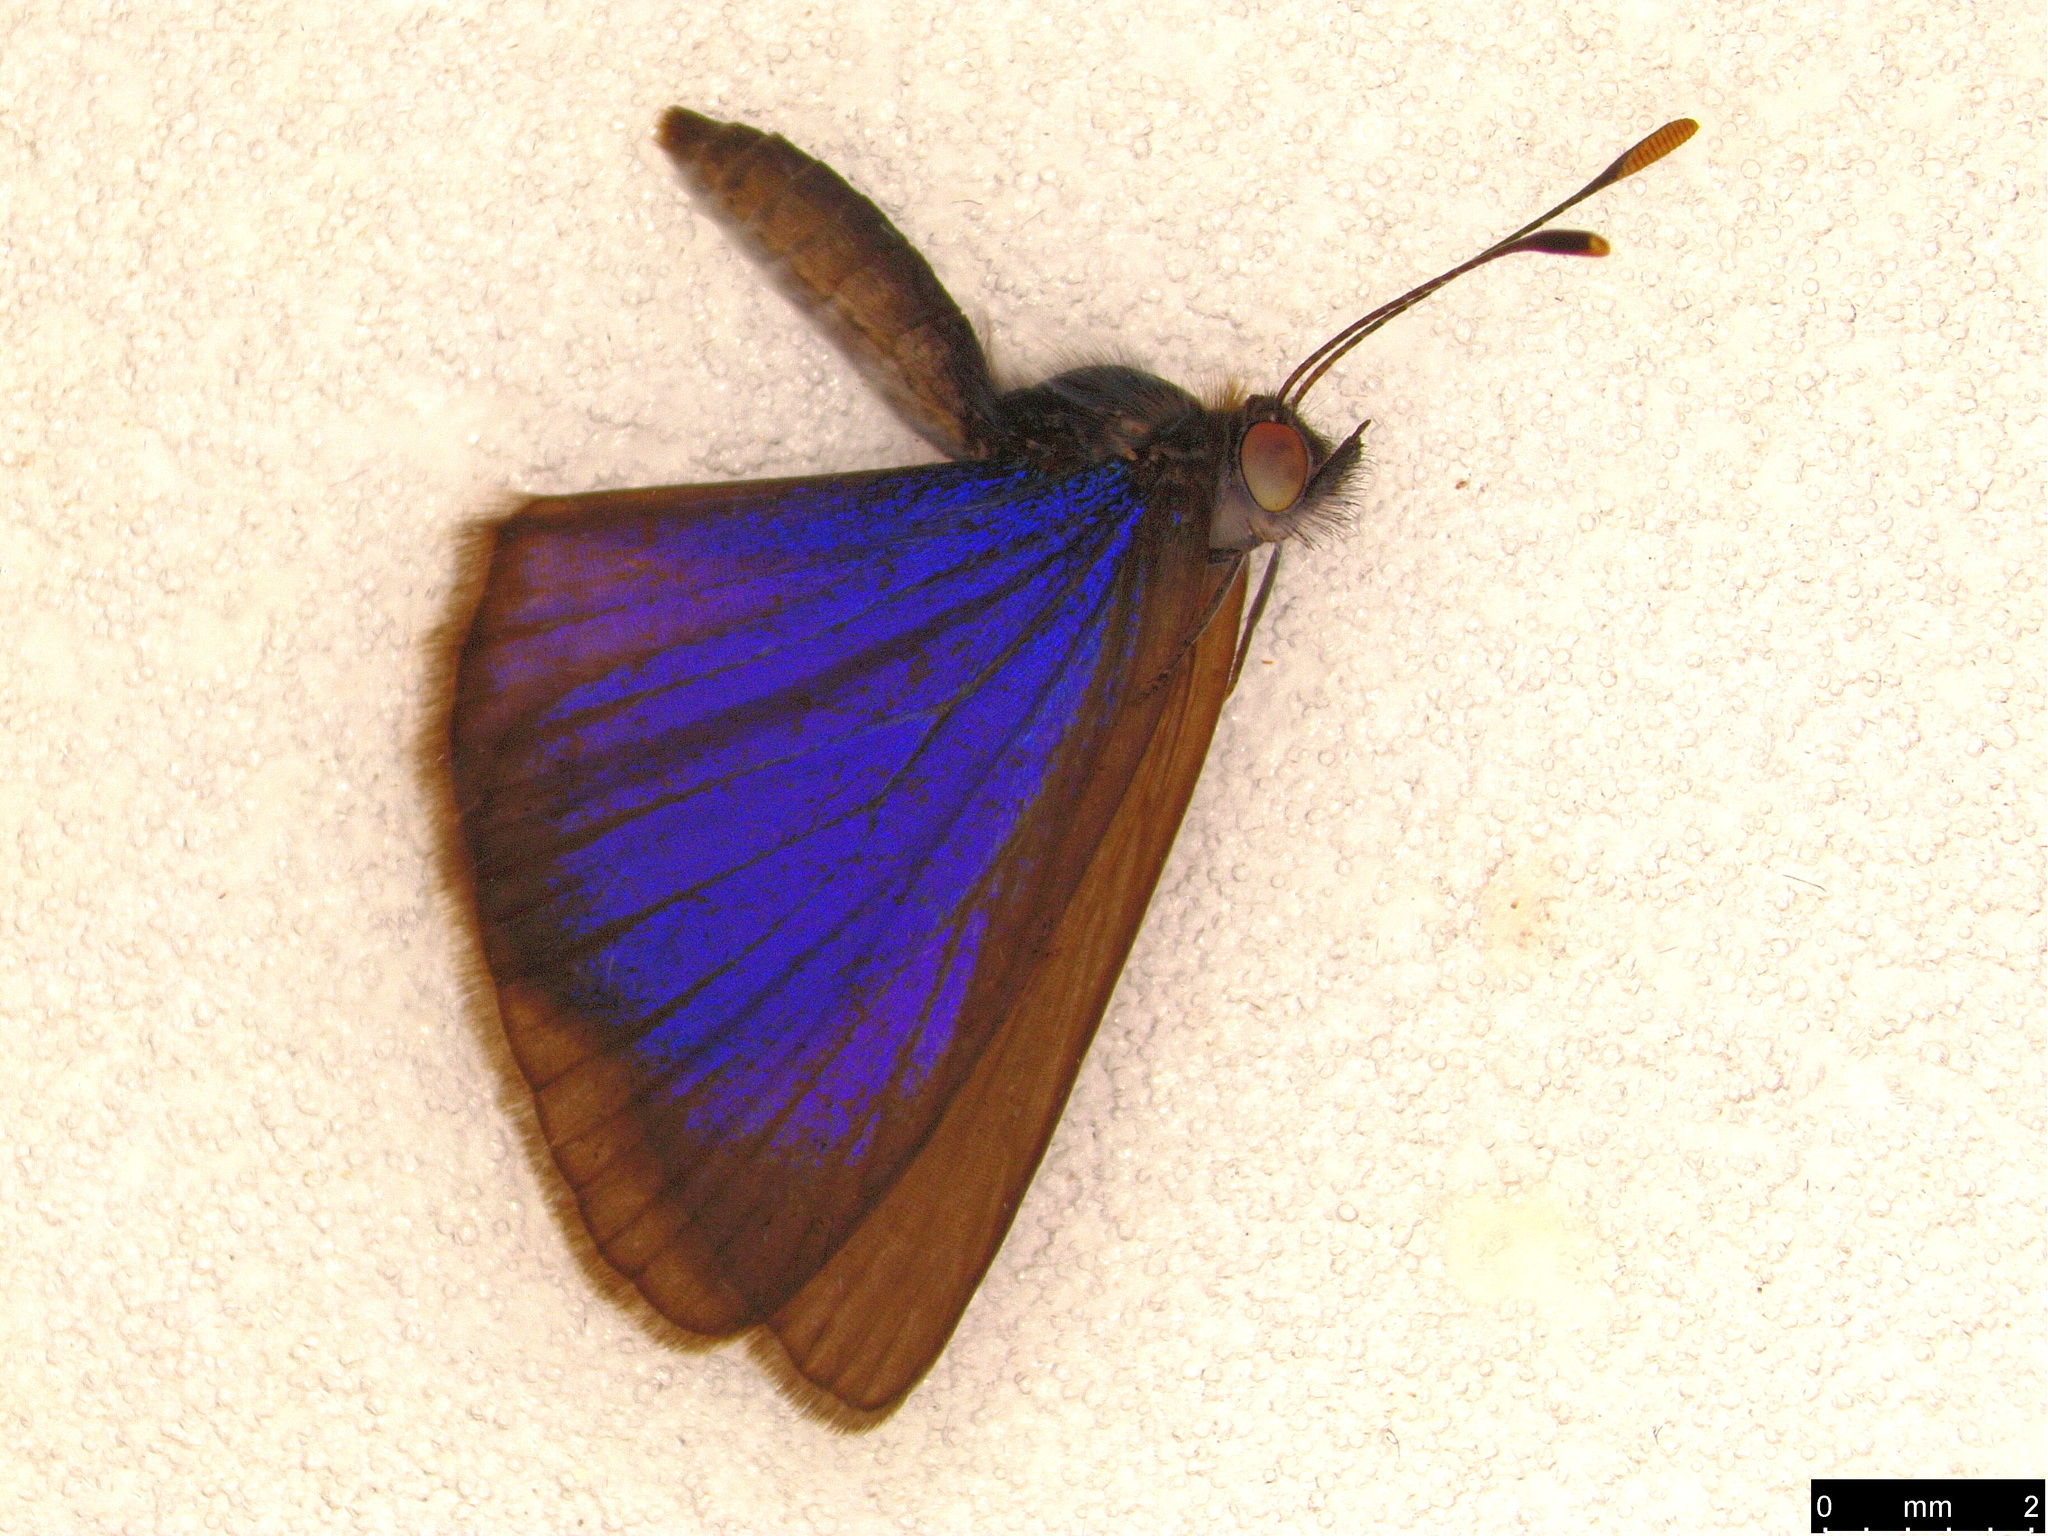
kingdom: Animalia
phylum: Arthropoda
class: Insecta
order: Lepidoptera
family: Lycaenidae
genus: Zizina
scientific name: Zizina labradus
